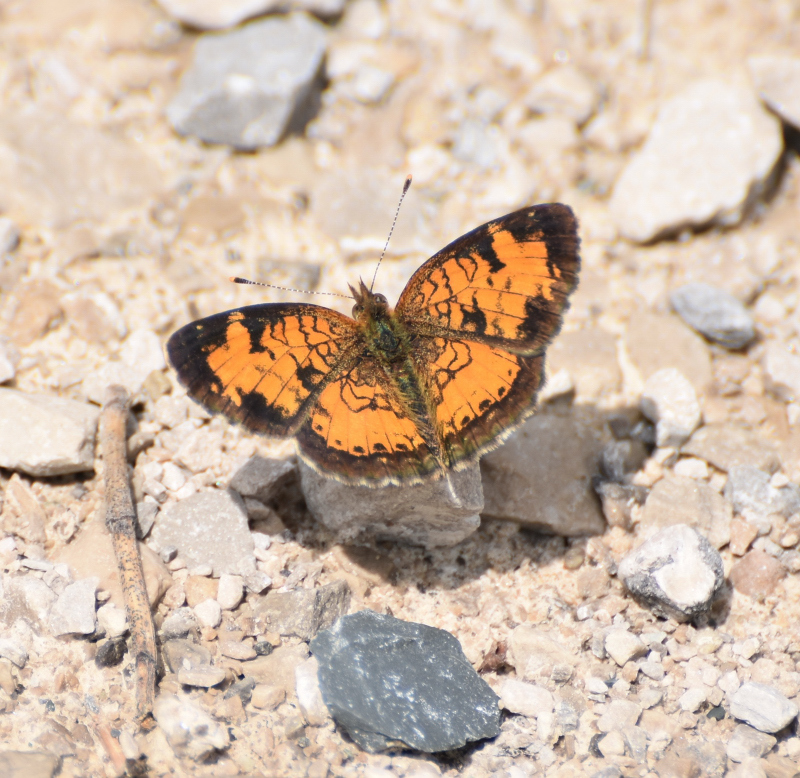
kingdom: Animalia
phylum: Arthropoda
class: Insecta
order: Lepidoptera
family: Nymphalidae
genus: Phyciodes
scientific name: Phyciodes tharos
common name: Pearl crescent
